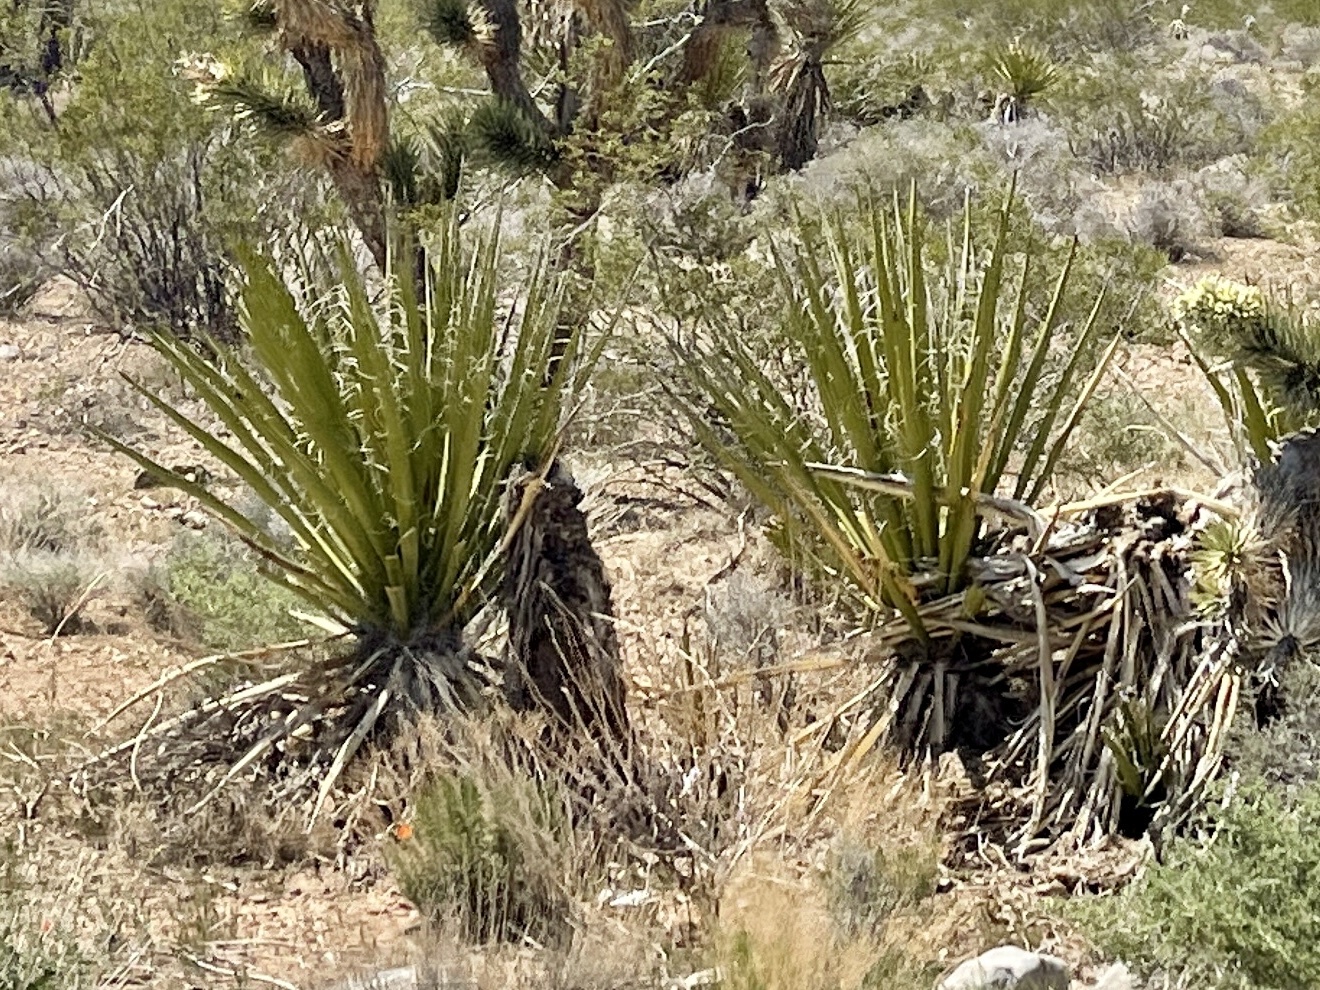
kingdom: Plantae
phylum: Tracheophyta
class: Liliopsida
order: Asparagales
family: Asparagaceae
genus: Yucca
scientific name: Yucca schidigera
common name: Mojave yucca
